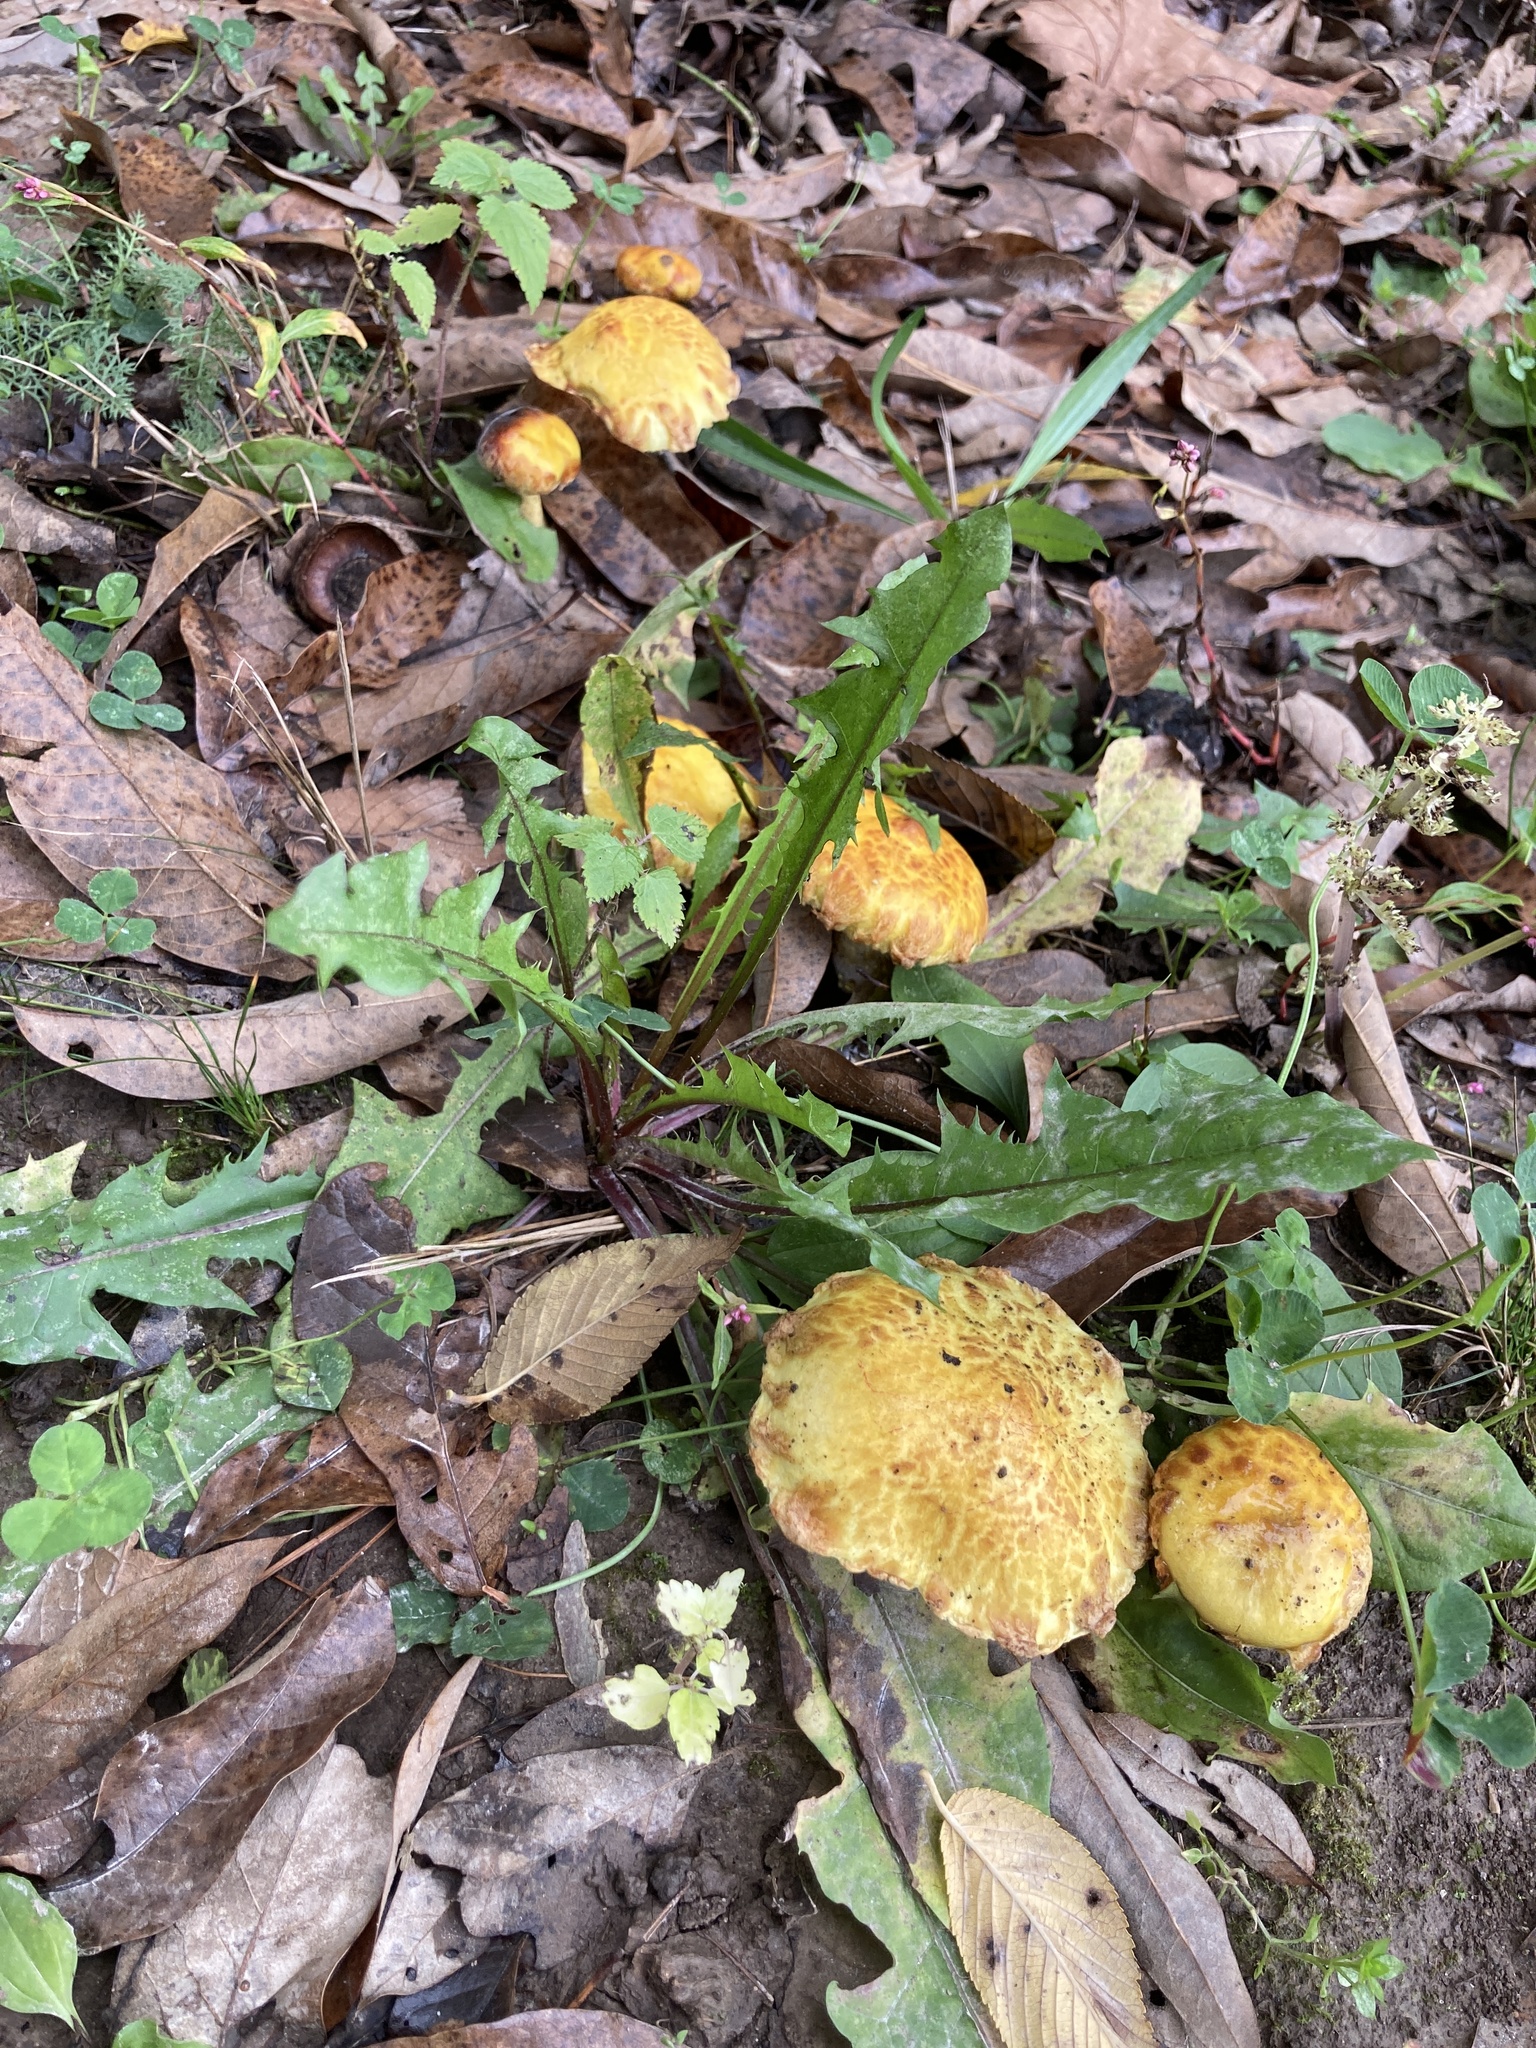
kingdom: Fungi
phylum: Basidiomycota
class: Agaricomycetes
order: Boletales
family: Suillaceae
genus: Suillus
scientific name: Suillus americanus
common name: Chicken fat mushroom
